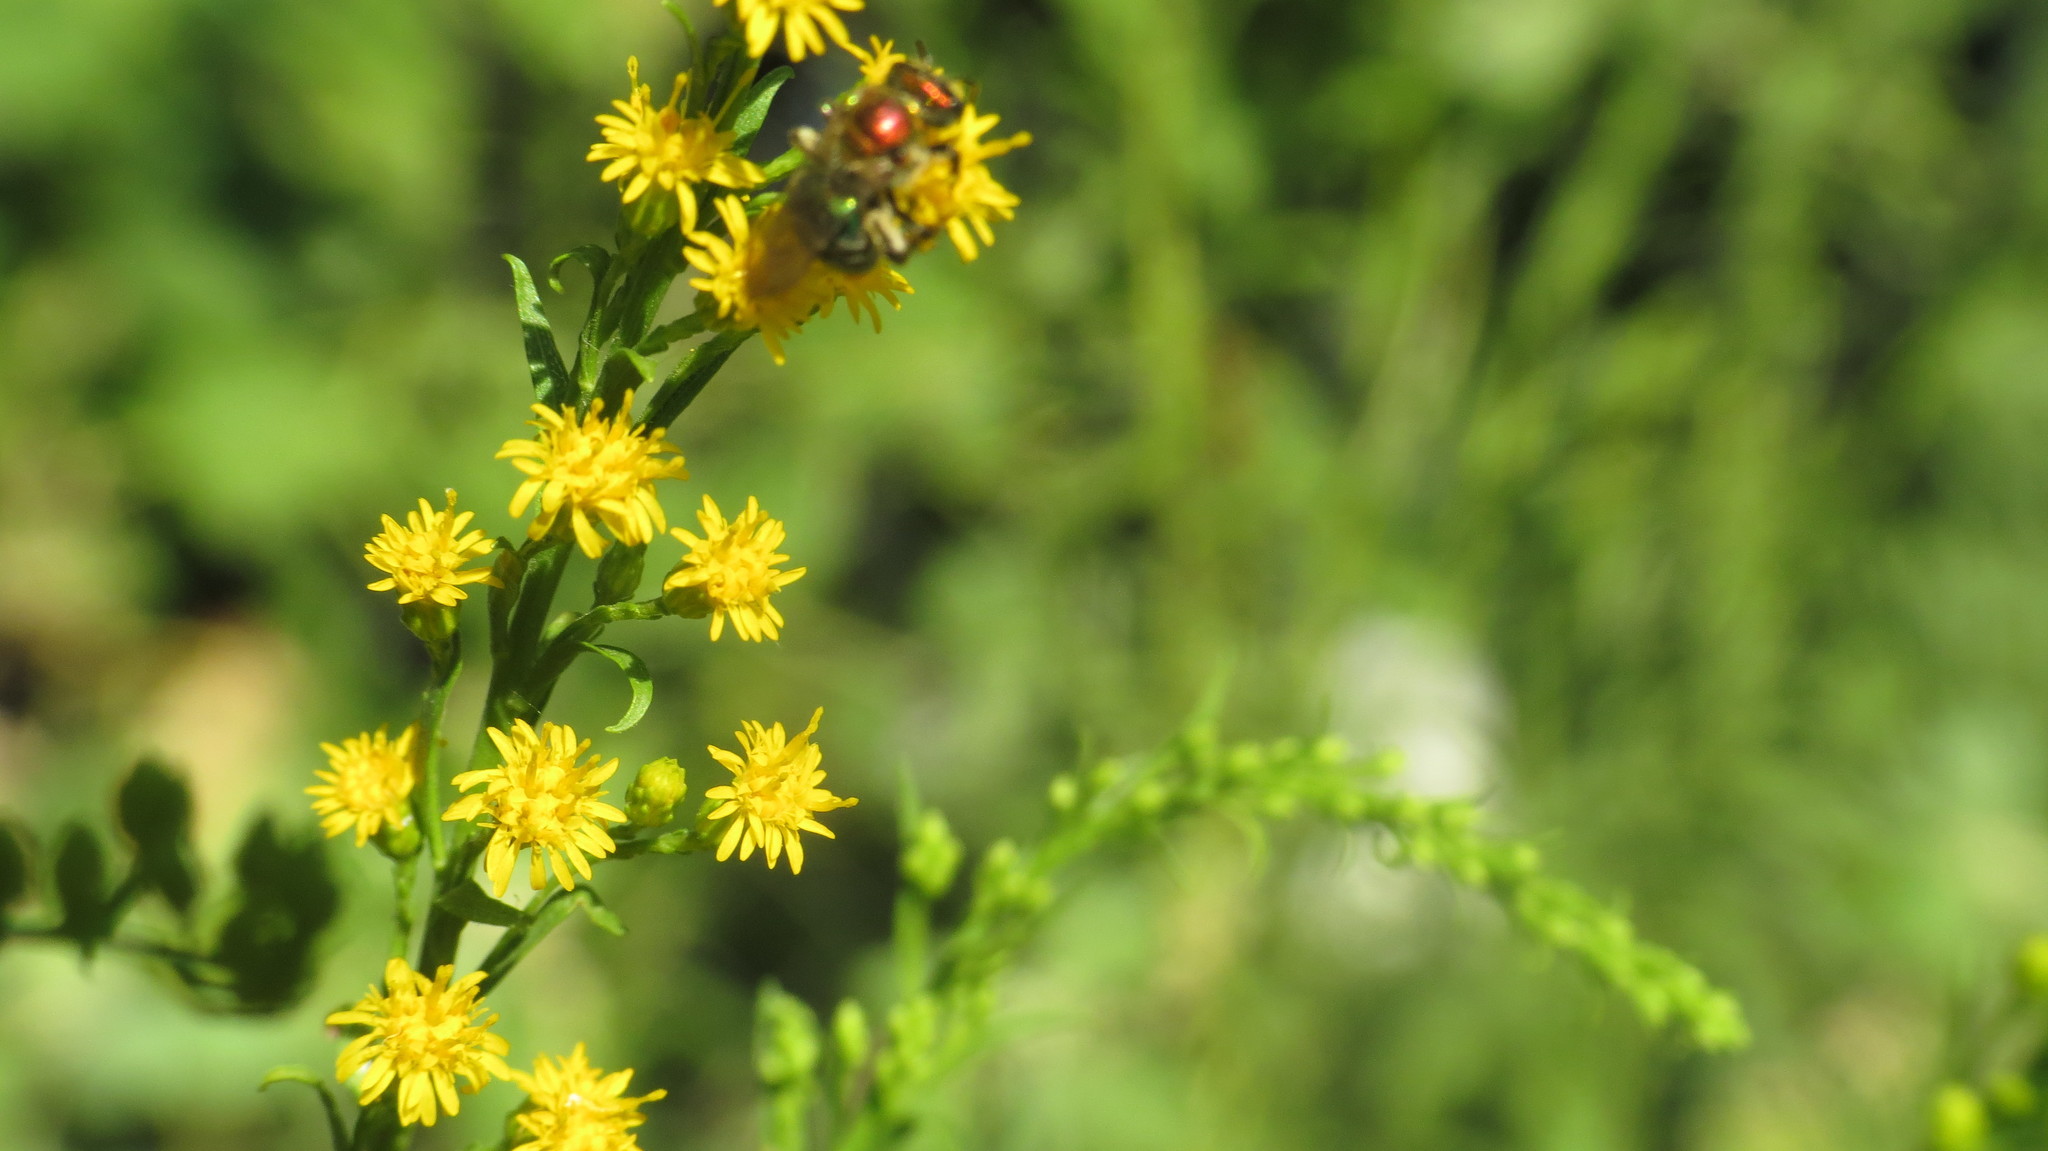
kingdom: Plantae
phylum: Tracheophyta
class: Magnoliopsida
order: Asterales
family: Asteraceae
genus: Solidago
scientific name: Solidago chilensis
